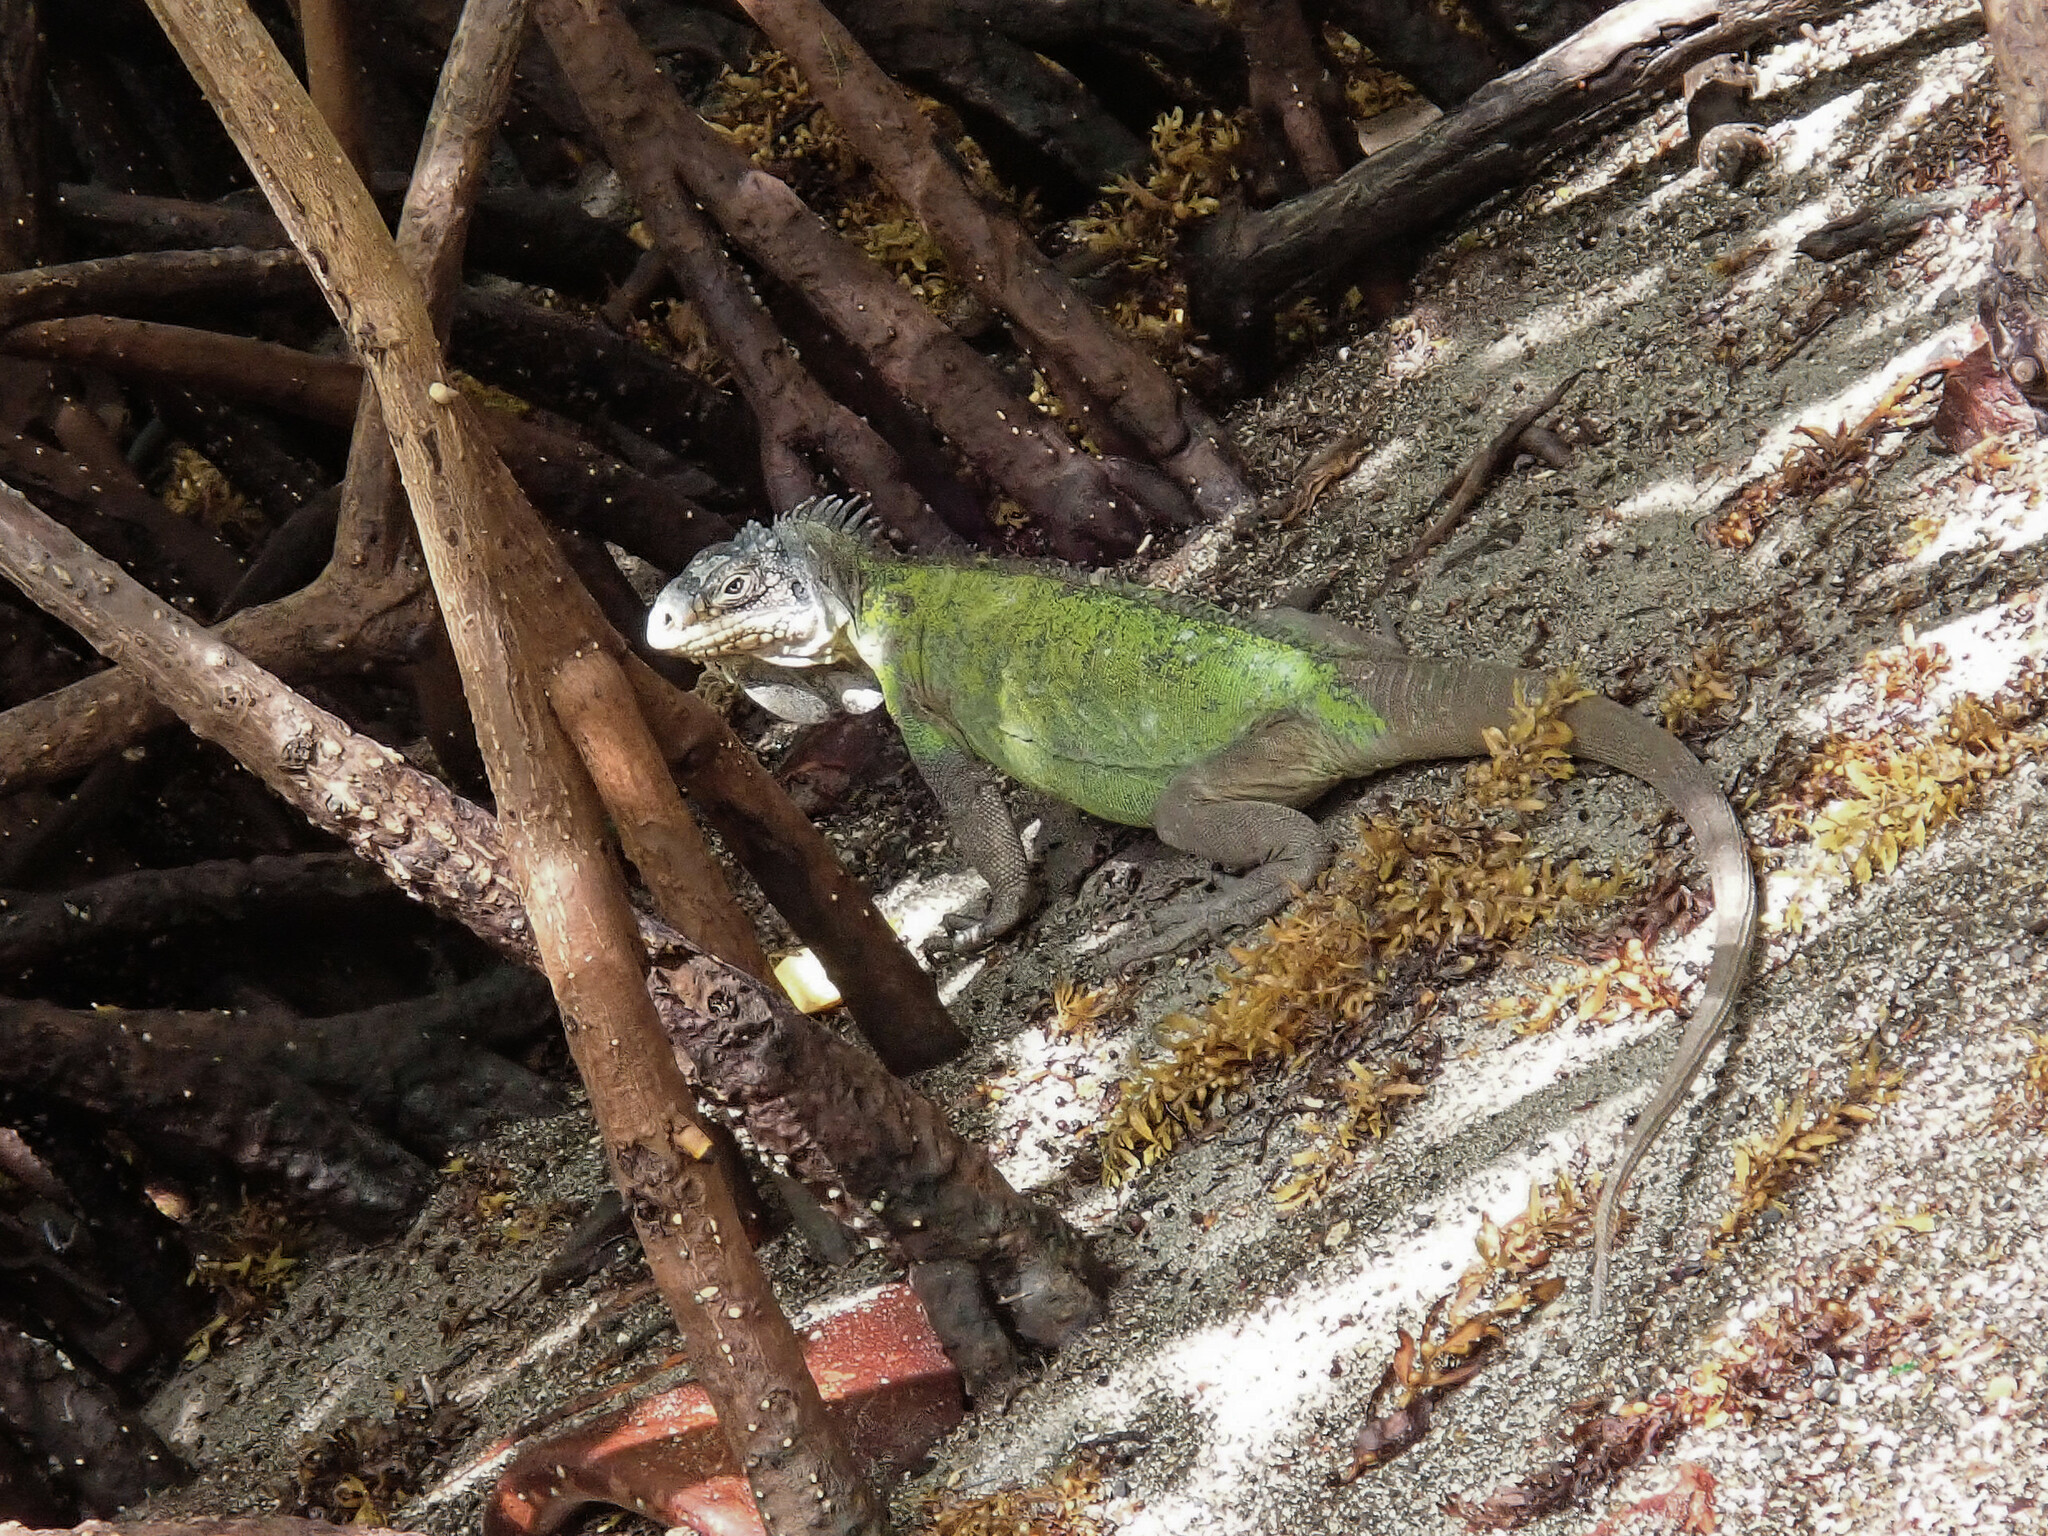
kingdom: Animalia
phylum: Chordata
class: Squamata
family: Iguanidae
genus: Iguana
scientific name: Iguana delicatissima
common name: West indian iguana
